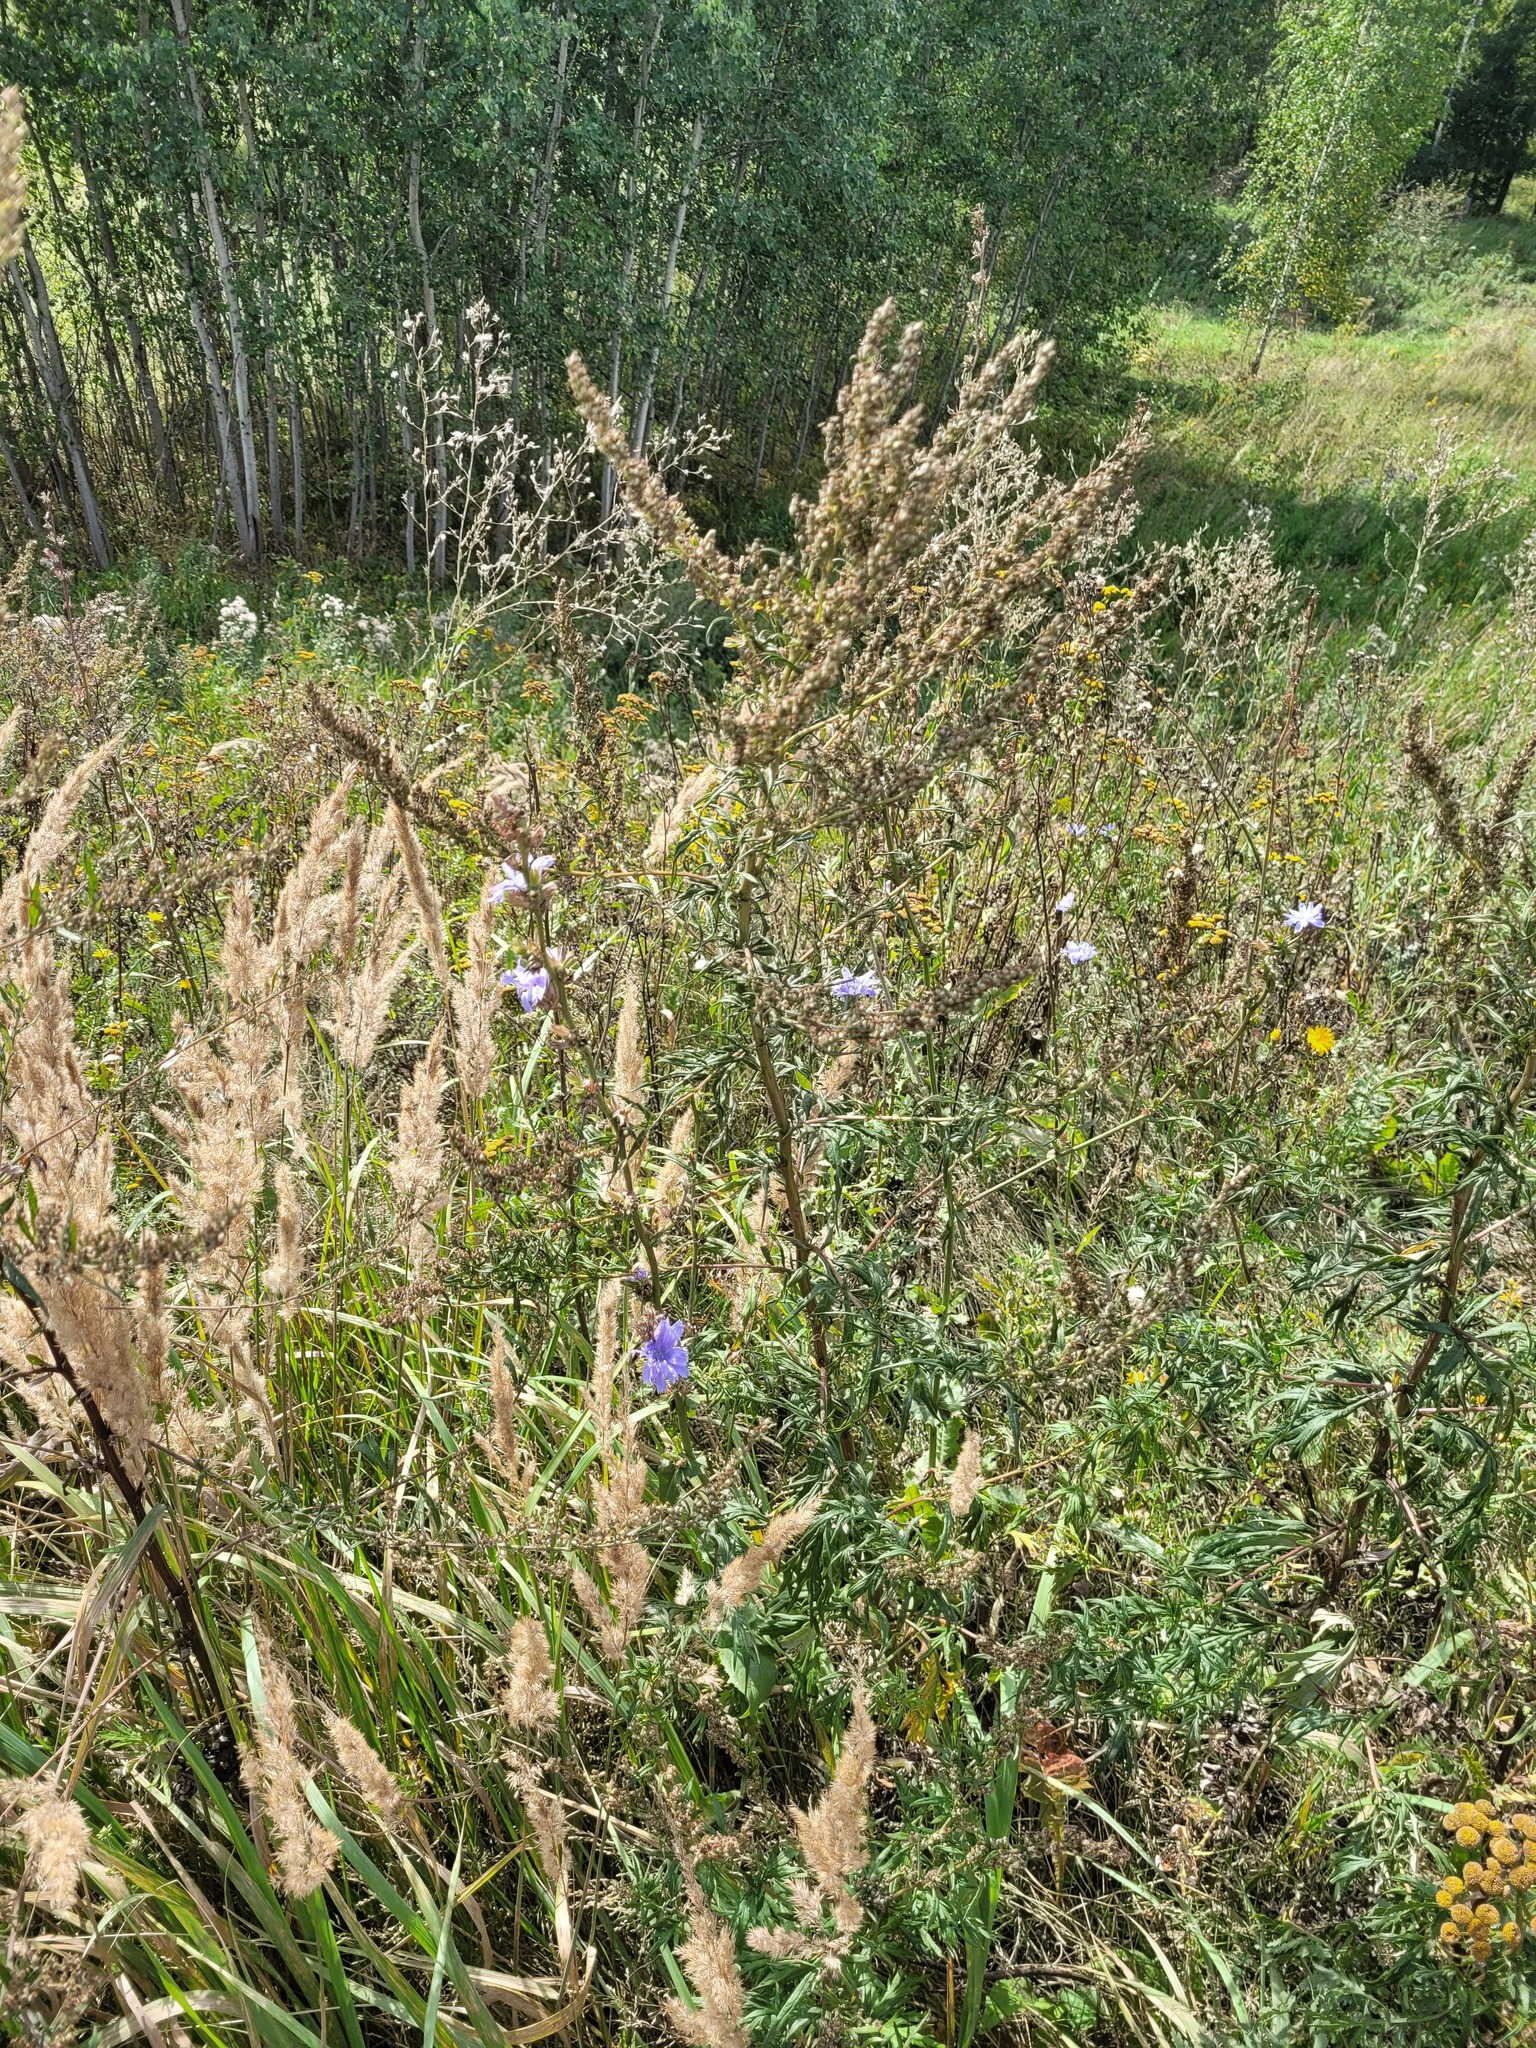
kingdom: Plantae
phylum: Tracheophyta
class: Magnoliopsida
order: Asterales
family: Asteraceae
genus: Cichorium
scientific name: Cichorium intybus
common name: Chicory
